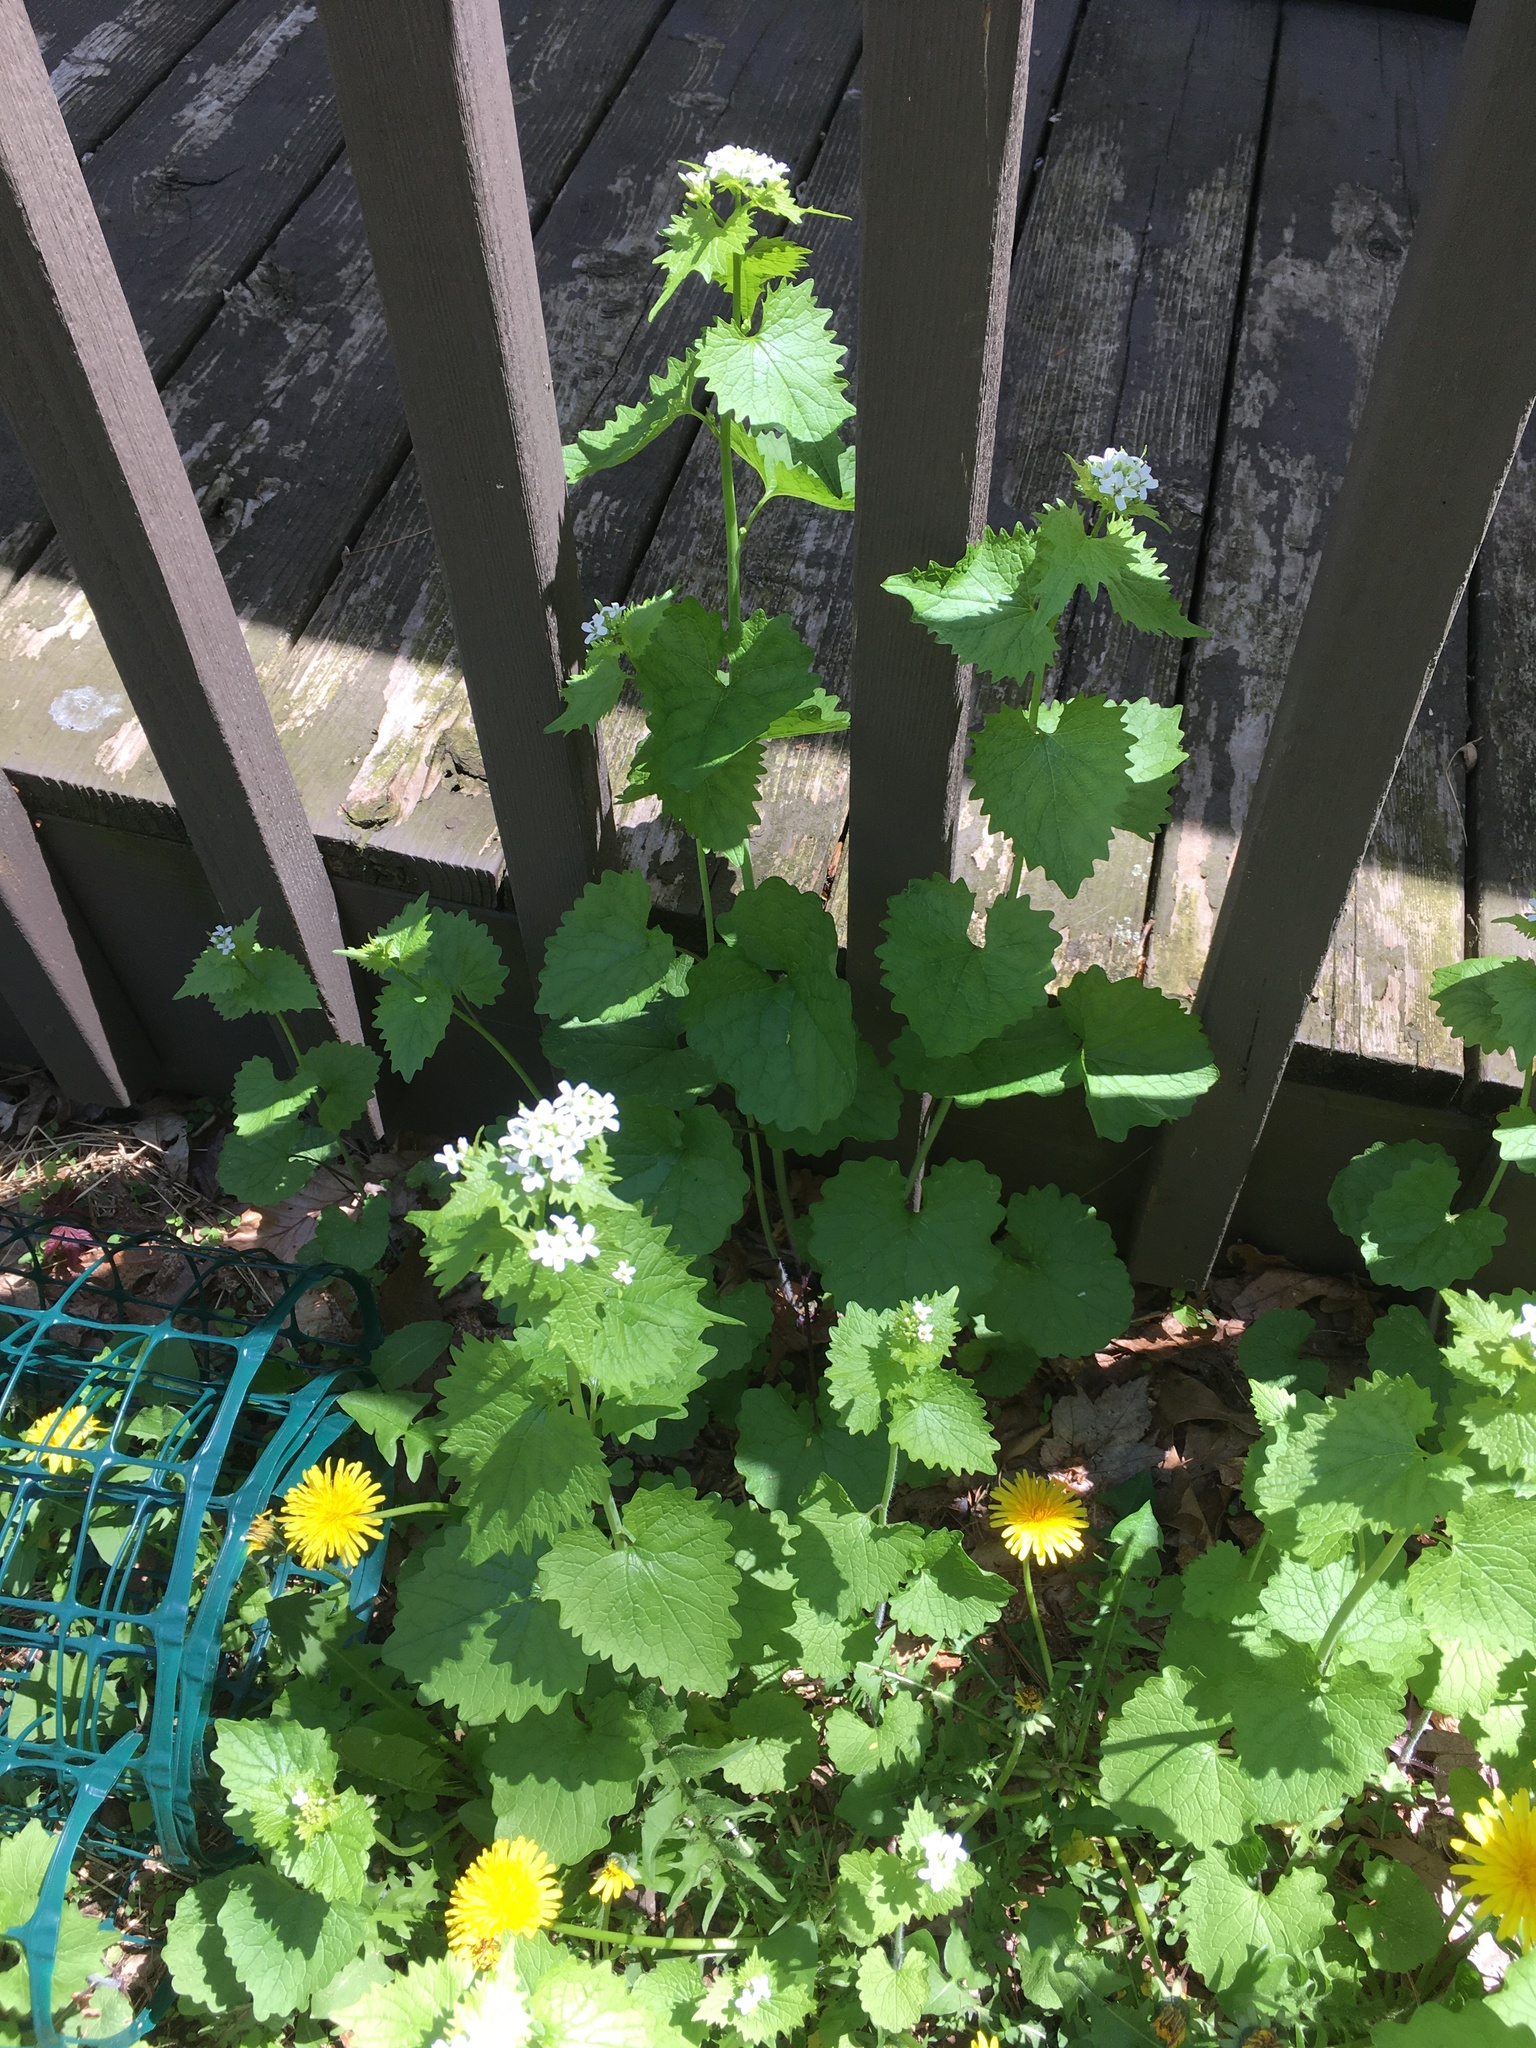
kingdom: Plantae
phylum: Tracheophyta
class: Magnoliopsida
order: Brassicales
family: Brassicaceae
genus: Alliaria
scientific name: Alliaria petiolata
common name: Garlic mustard
